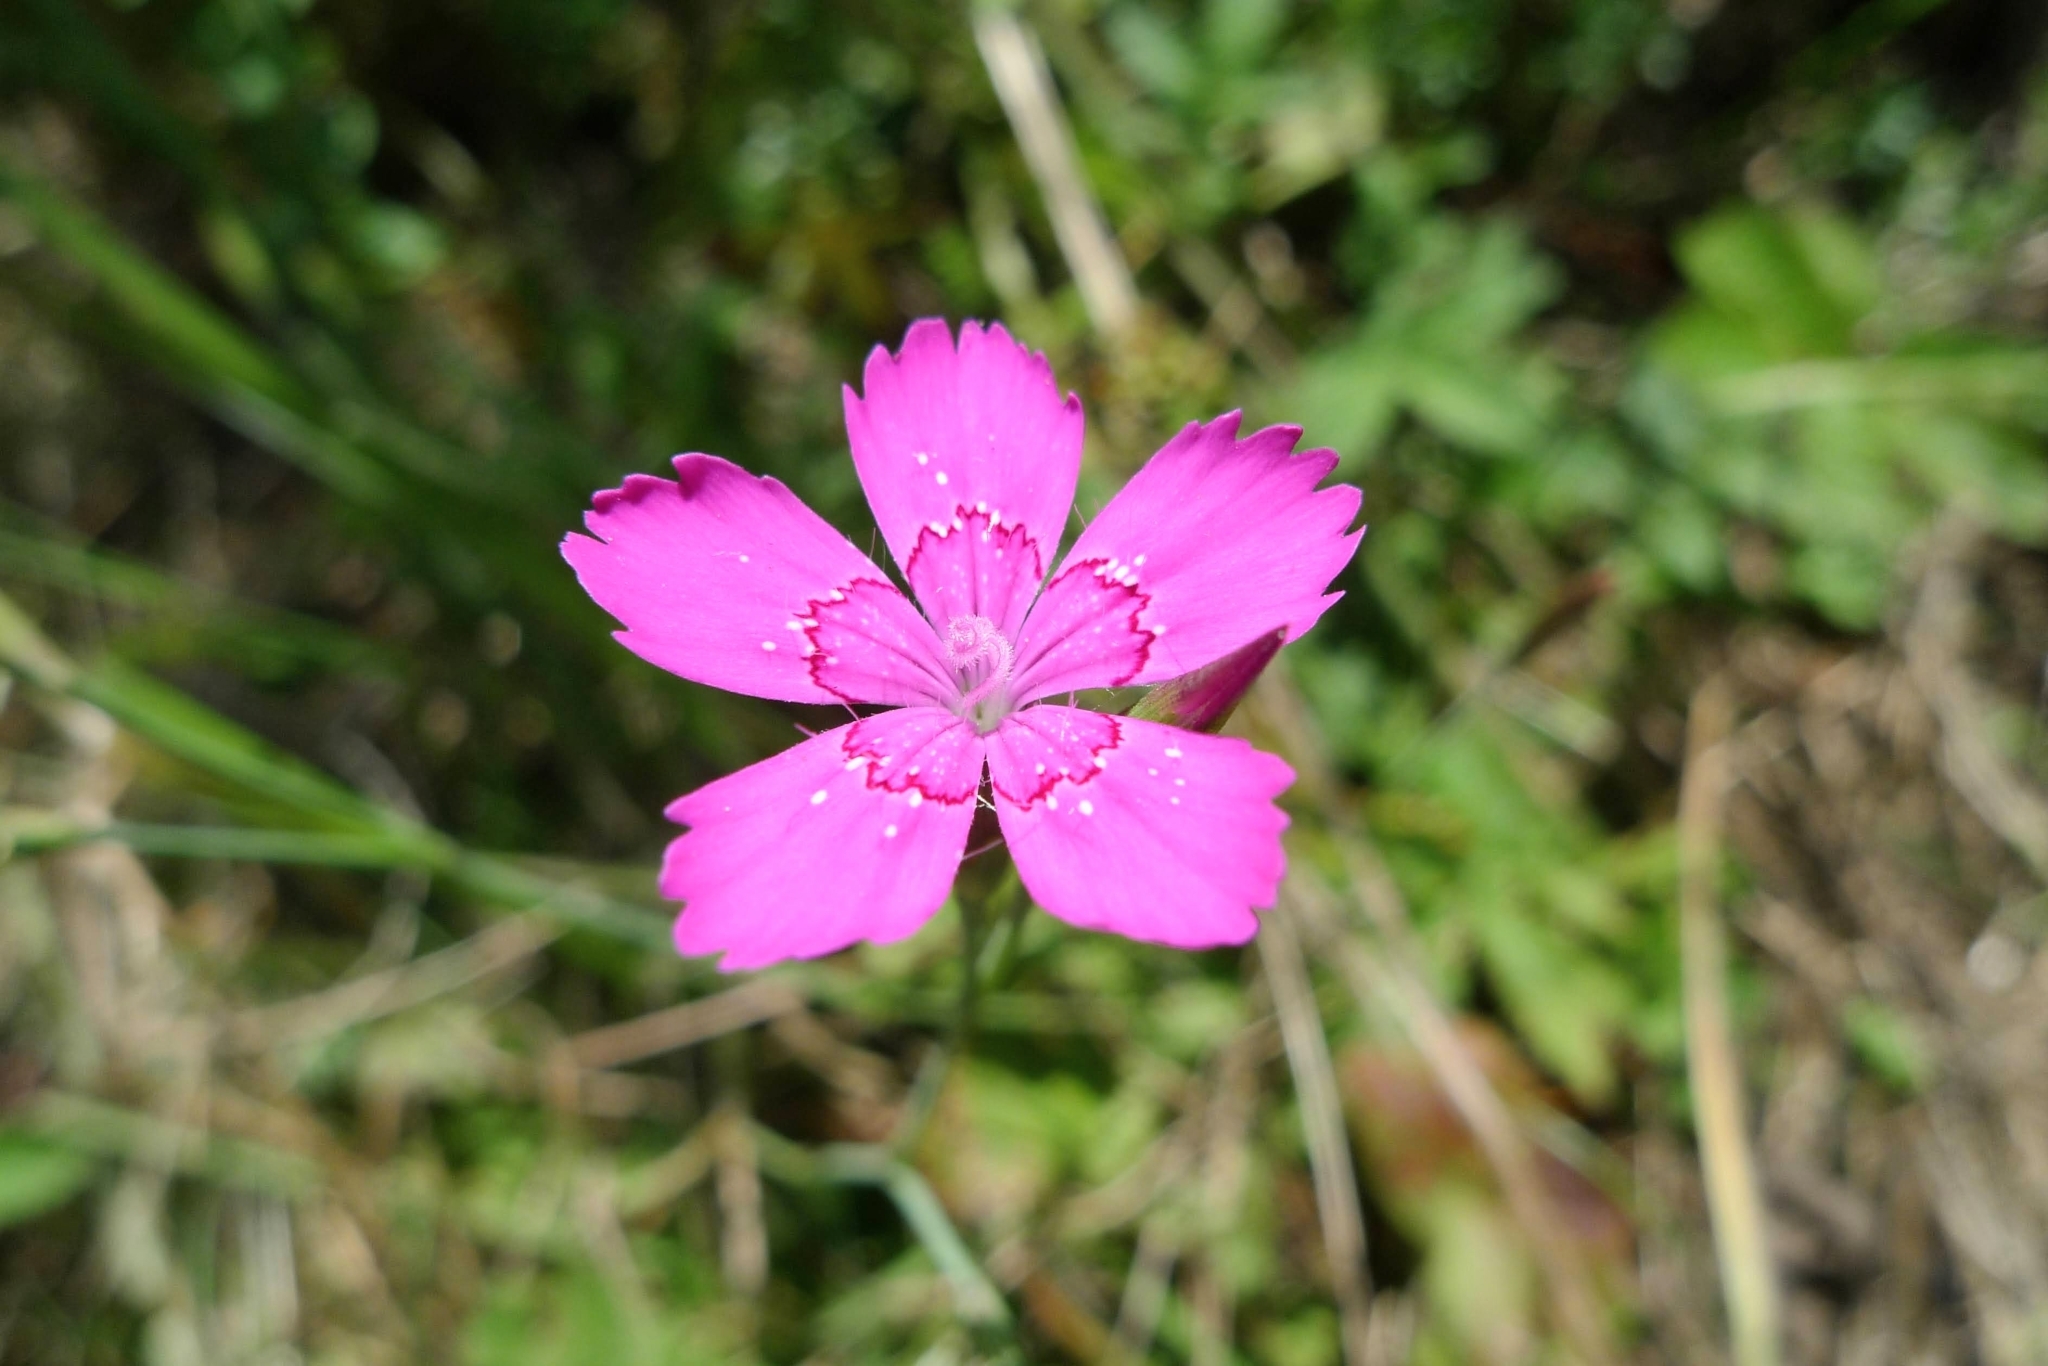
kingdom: Plantae
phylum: Tracheophyta
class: Magnoliopsida
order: Caryophyllales
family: Caryophyllaceae
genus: Dianthus
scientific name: Dianthus deltoides
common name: Maiden pink
